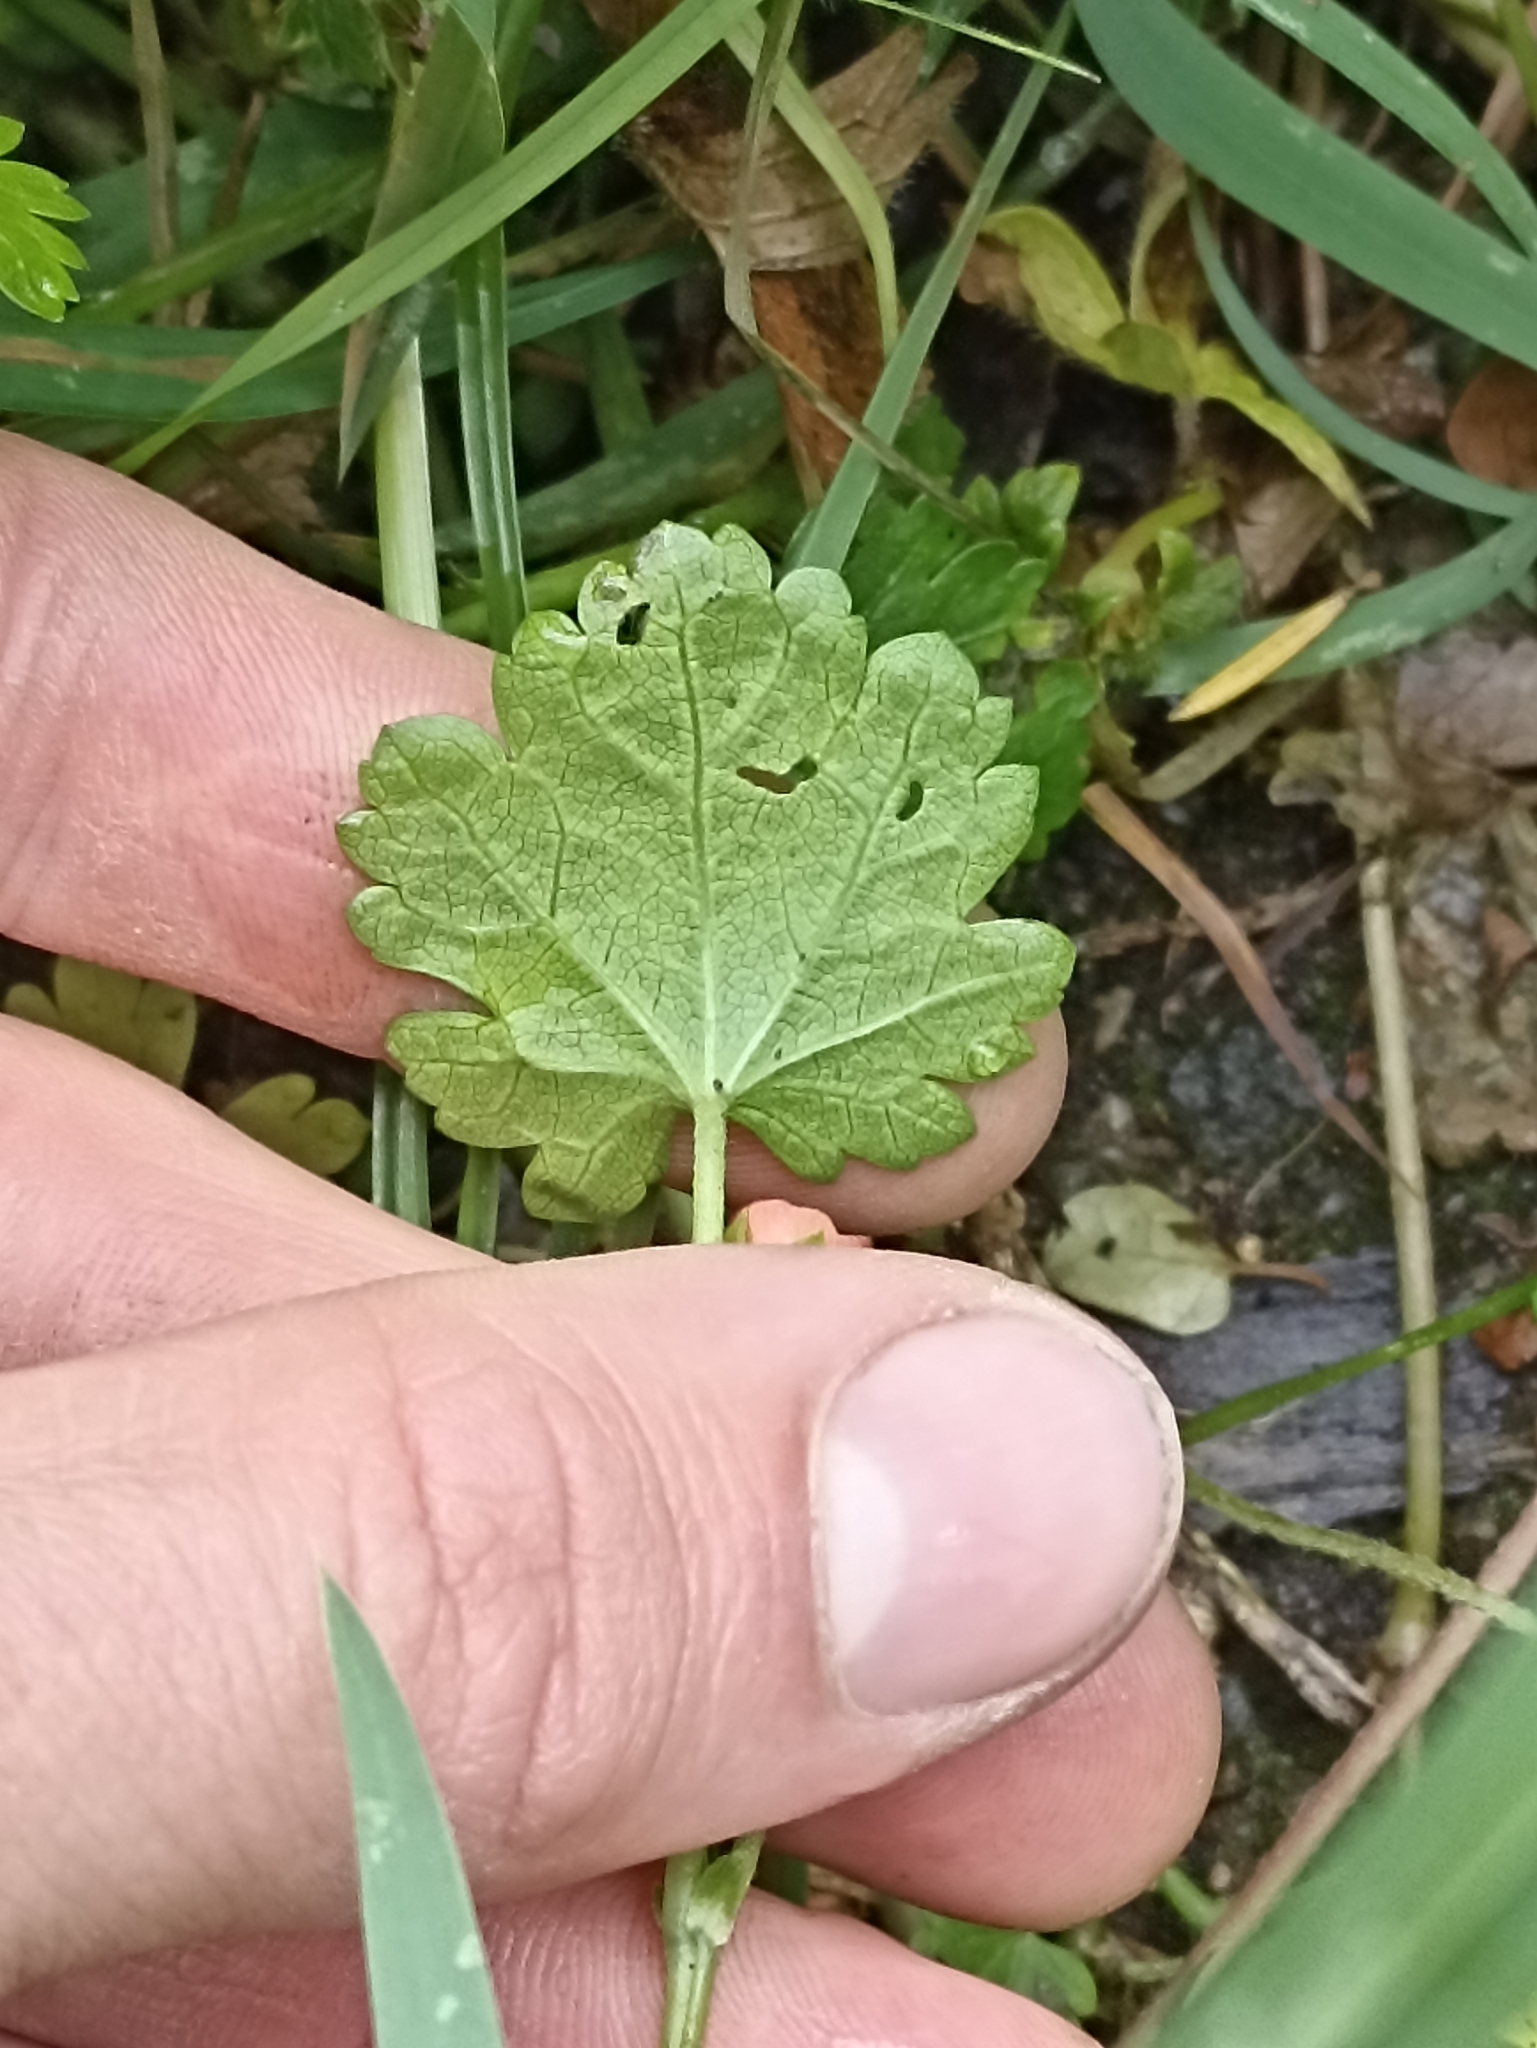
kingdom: Plantae
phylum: Tracheophyta
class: Magnoliopsida
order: Malvales
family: Malvaceae
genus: Modiola
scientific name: Modiola caroliniana
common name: Carolina bristlemallow
